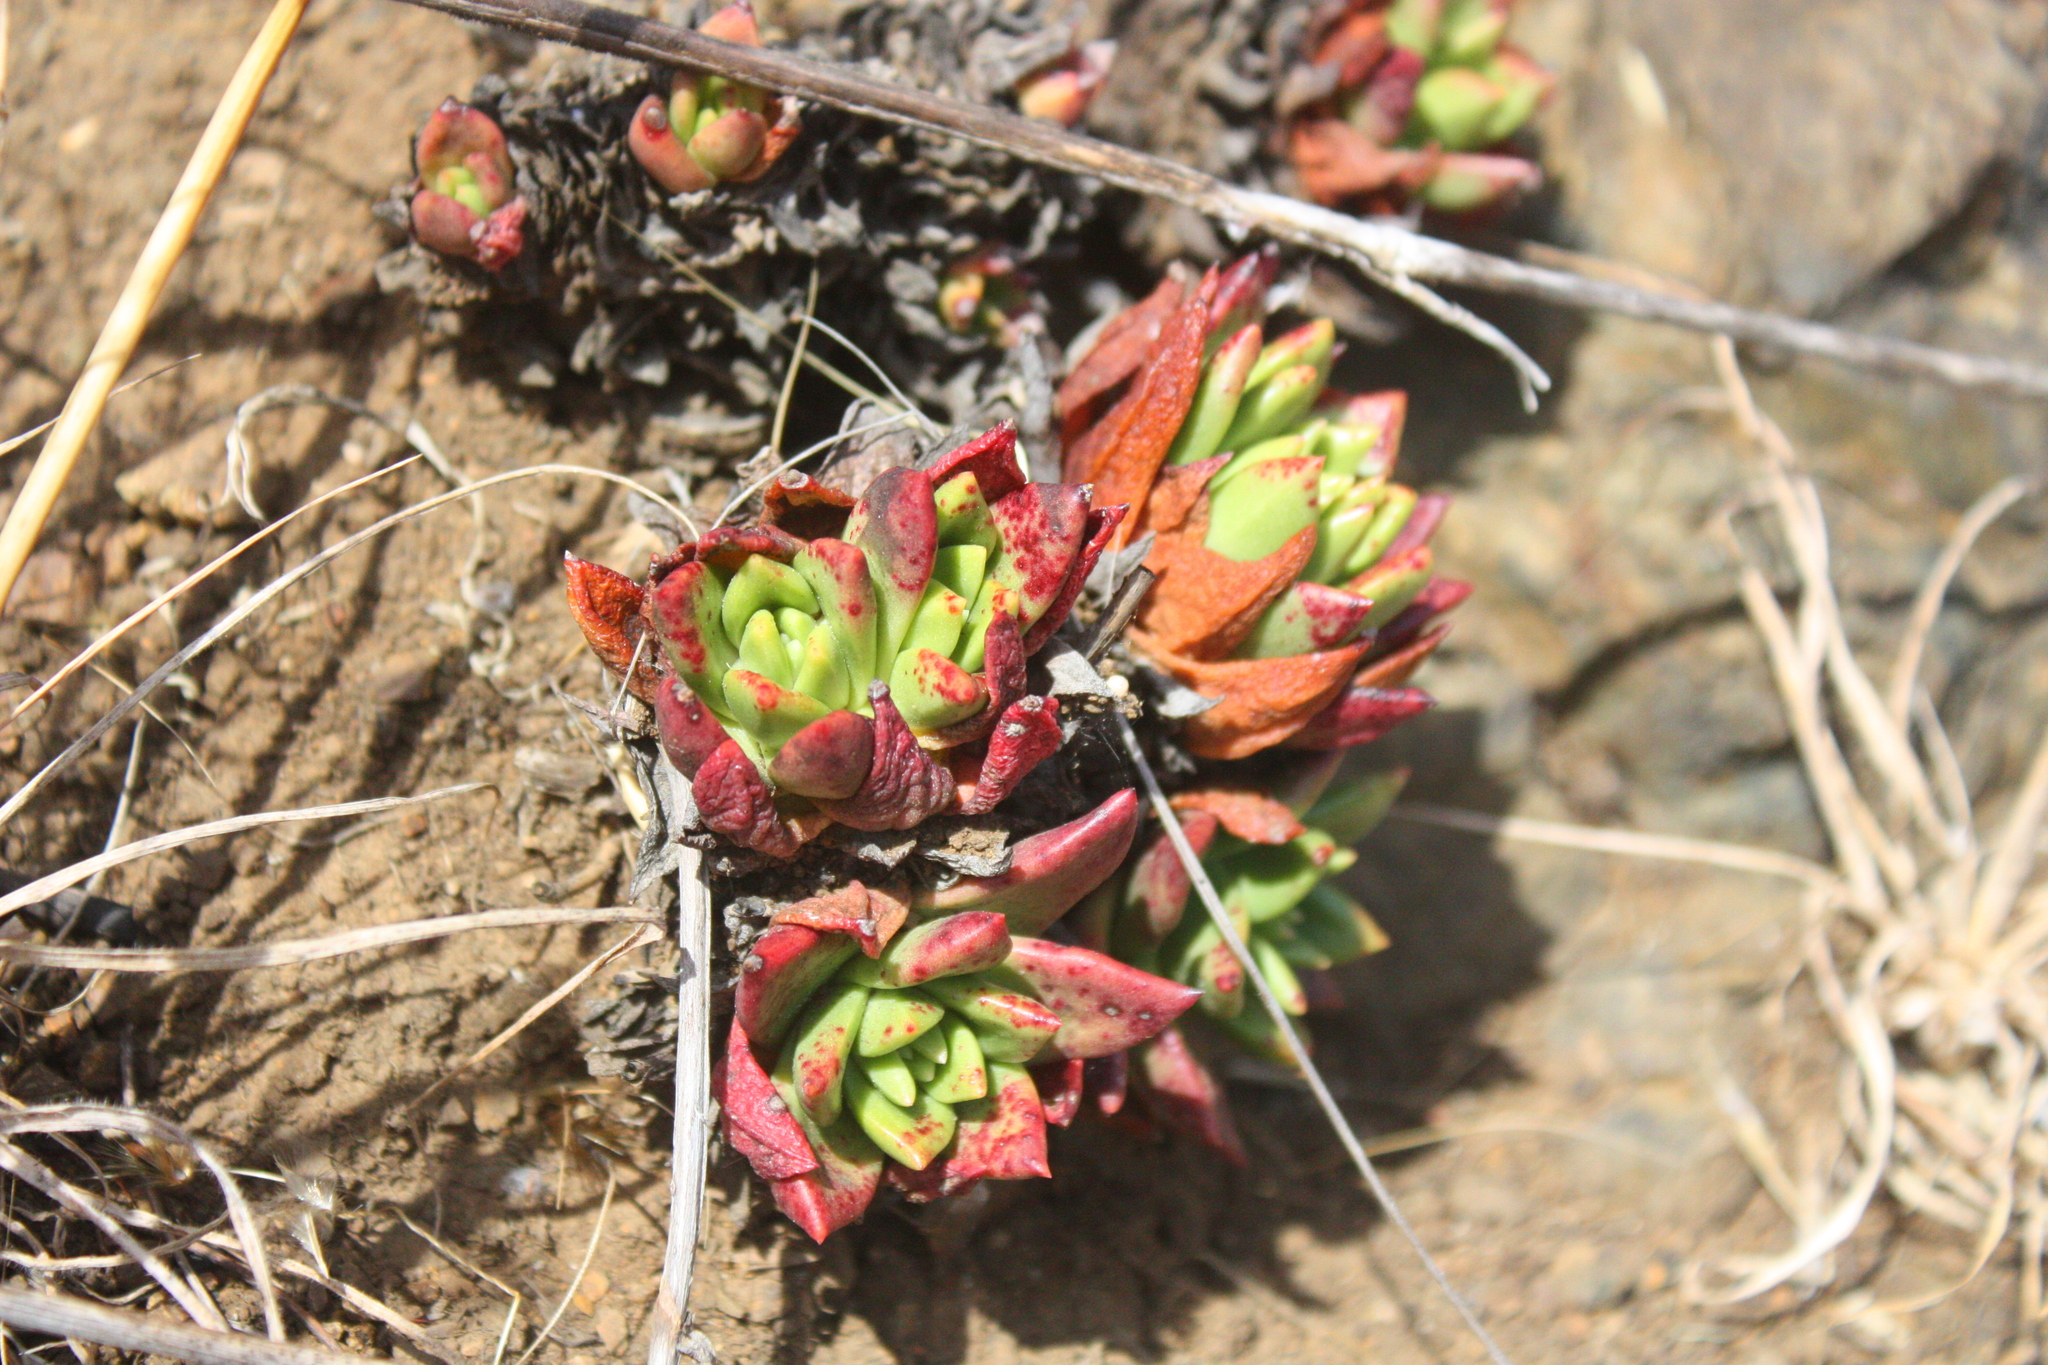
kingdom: Plantae
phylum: Tracheophyta
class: Magnoliopsida
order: Saxifragales
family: Crassulaceae
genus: Dudleya
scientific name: Dudleya farinosa
